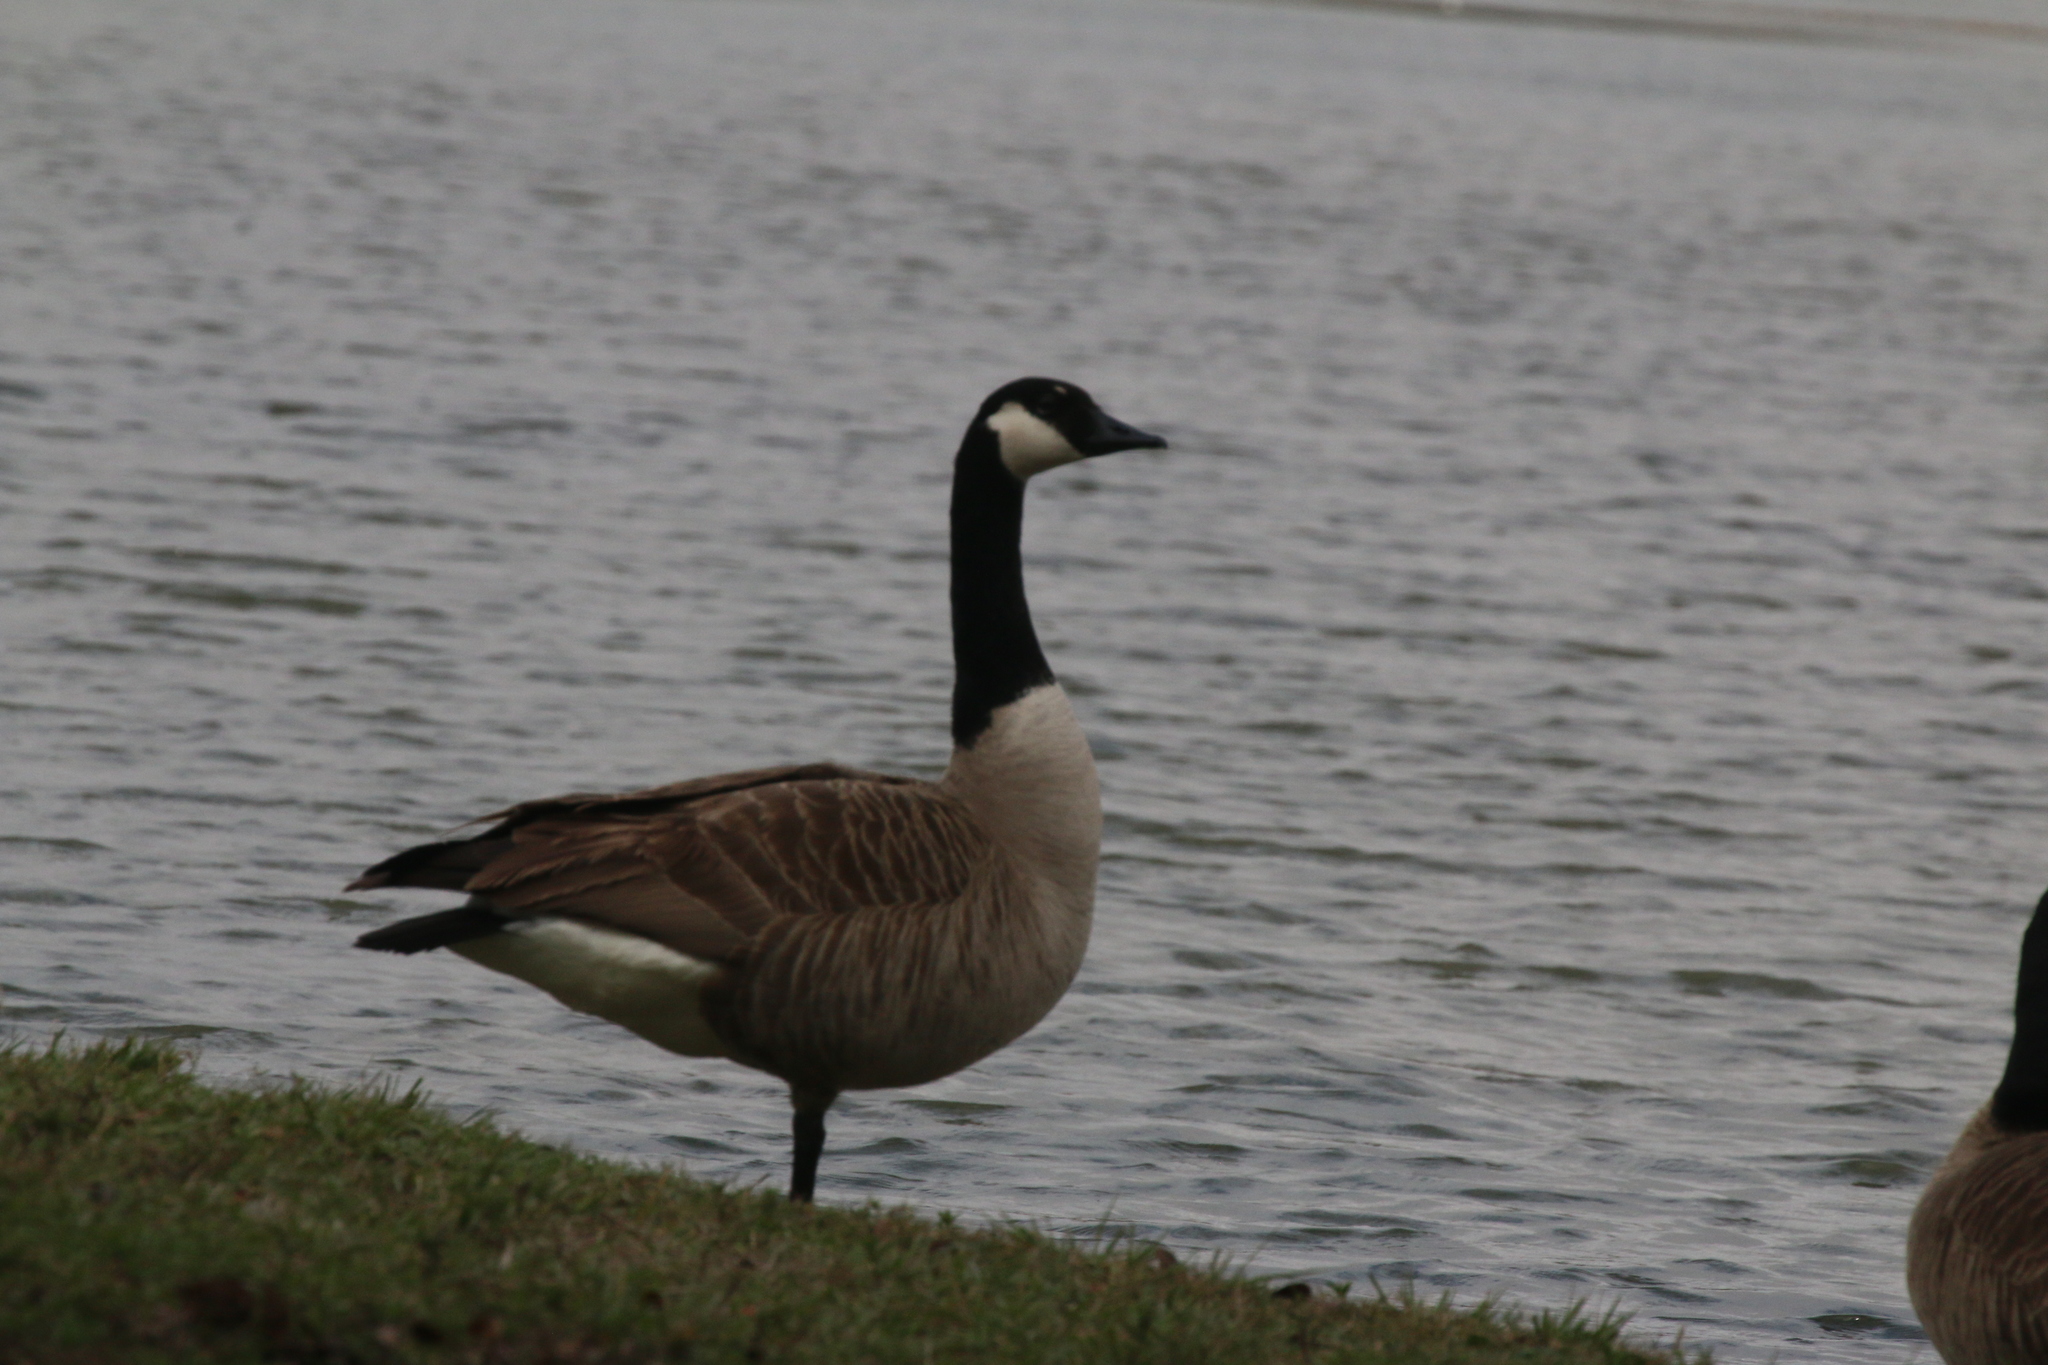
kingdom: Animalia
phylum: Chordata
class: Aves
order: Anseriformes
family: Anatidae
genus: Branta
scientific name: Branta canadensis
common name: Canada goose
